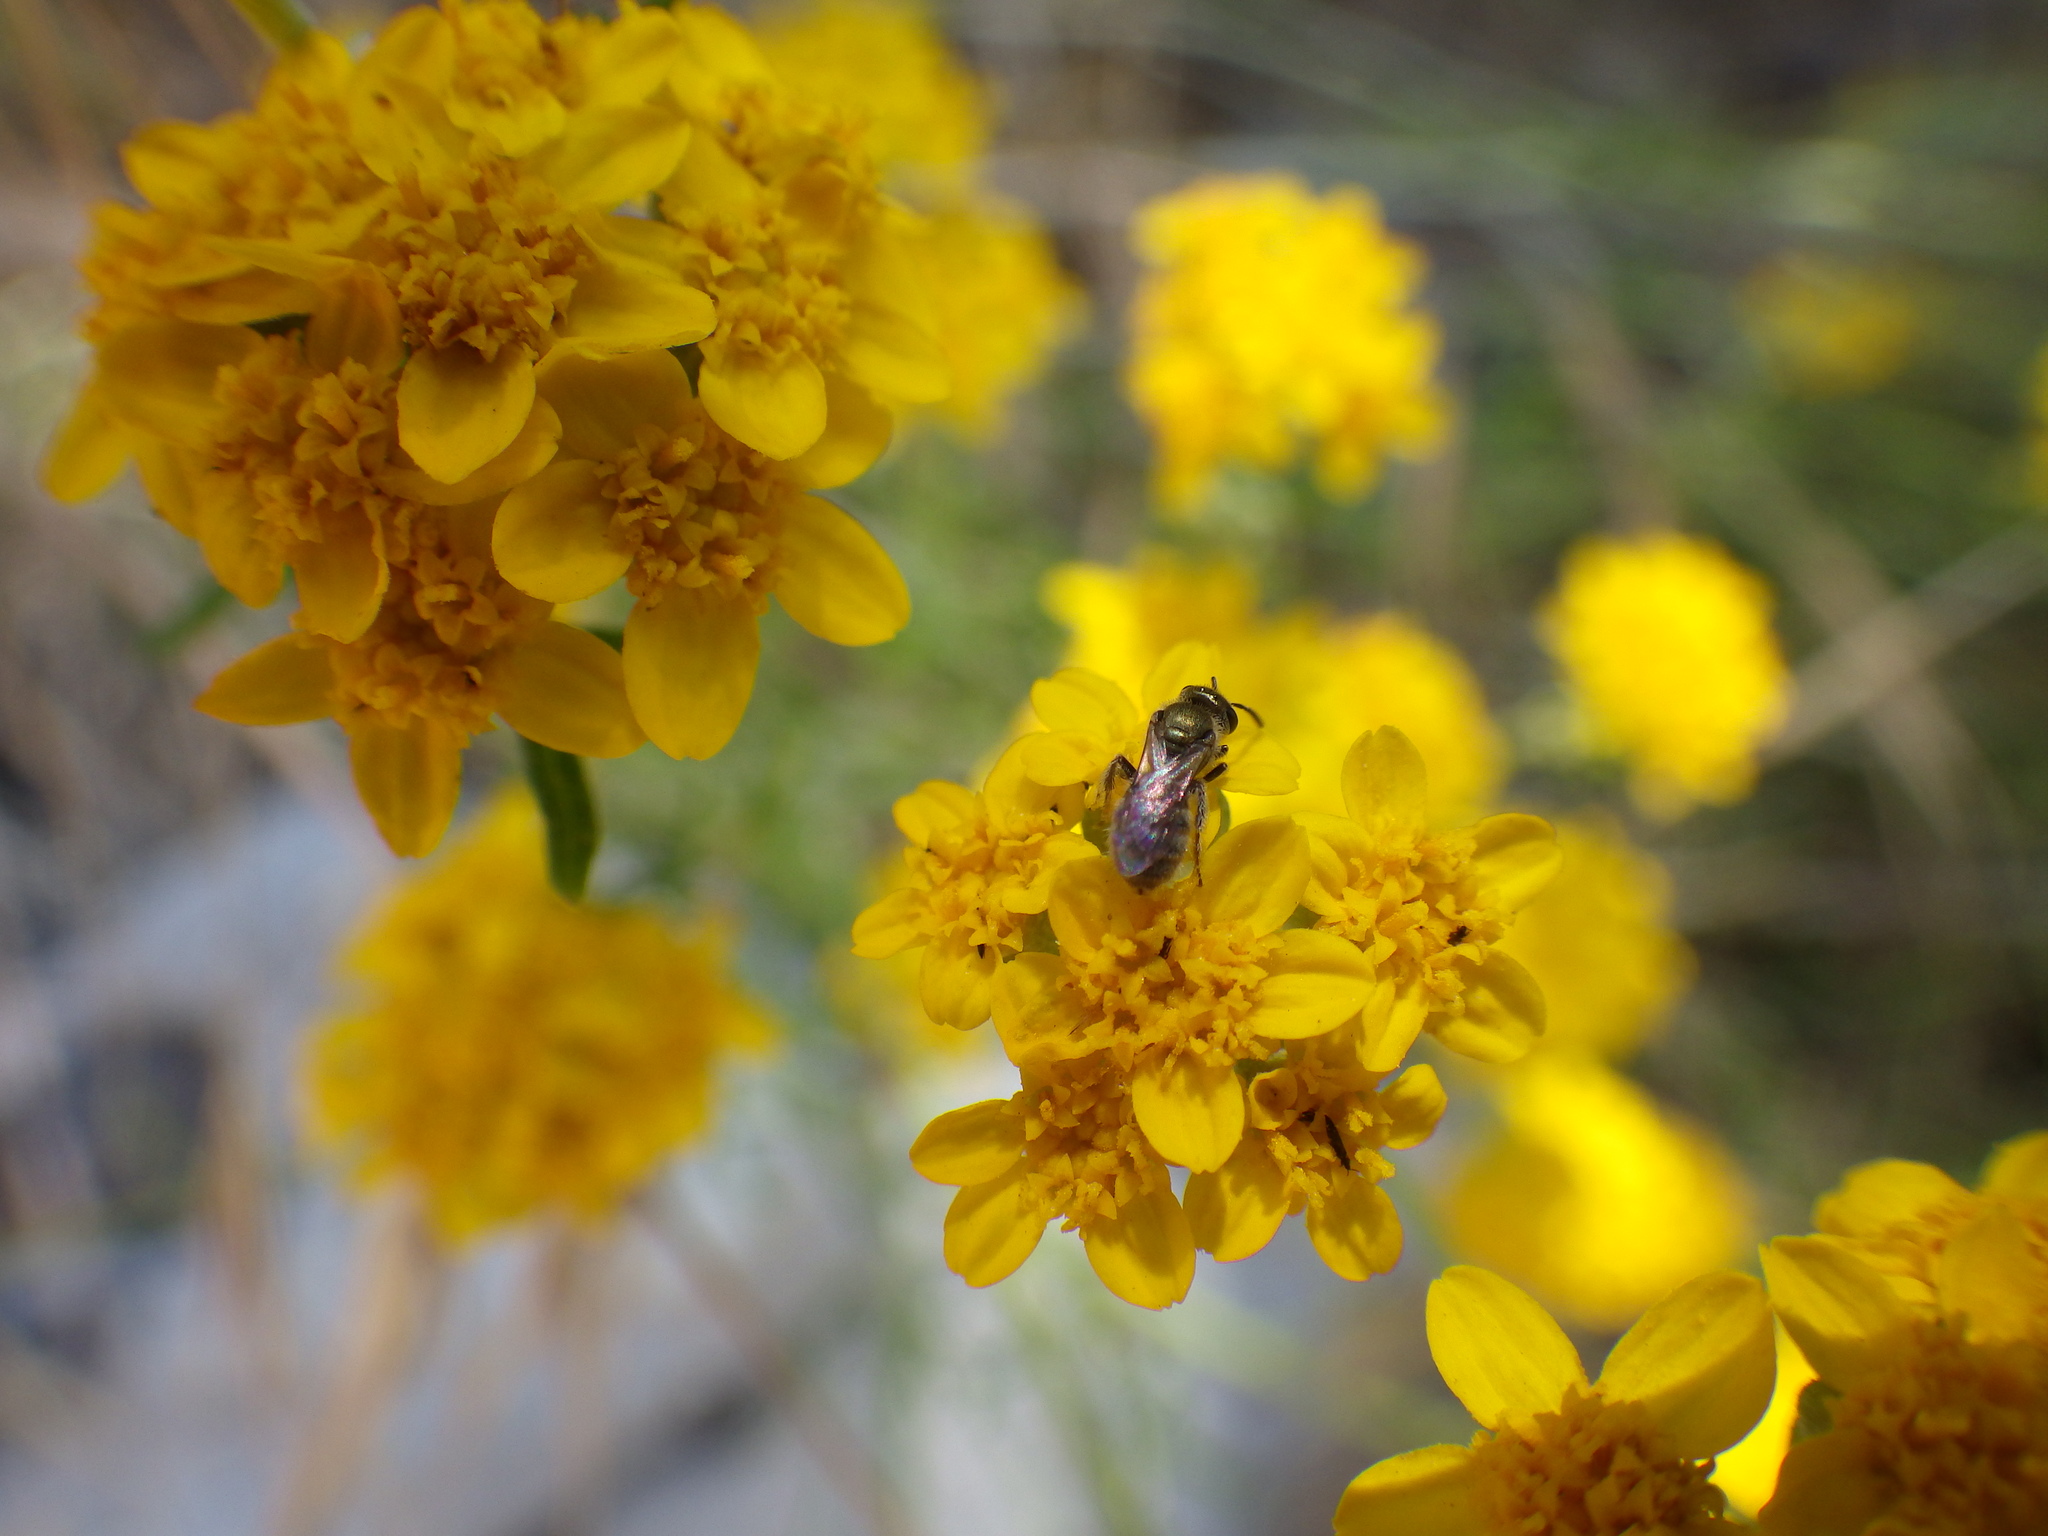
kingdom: Animalia
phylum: Arthropoda
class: Insecta
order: Hymenoptera
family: Halictidae
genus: Lasioglossum
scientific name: Lasioglossum
